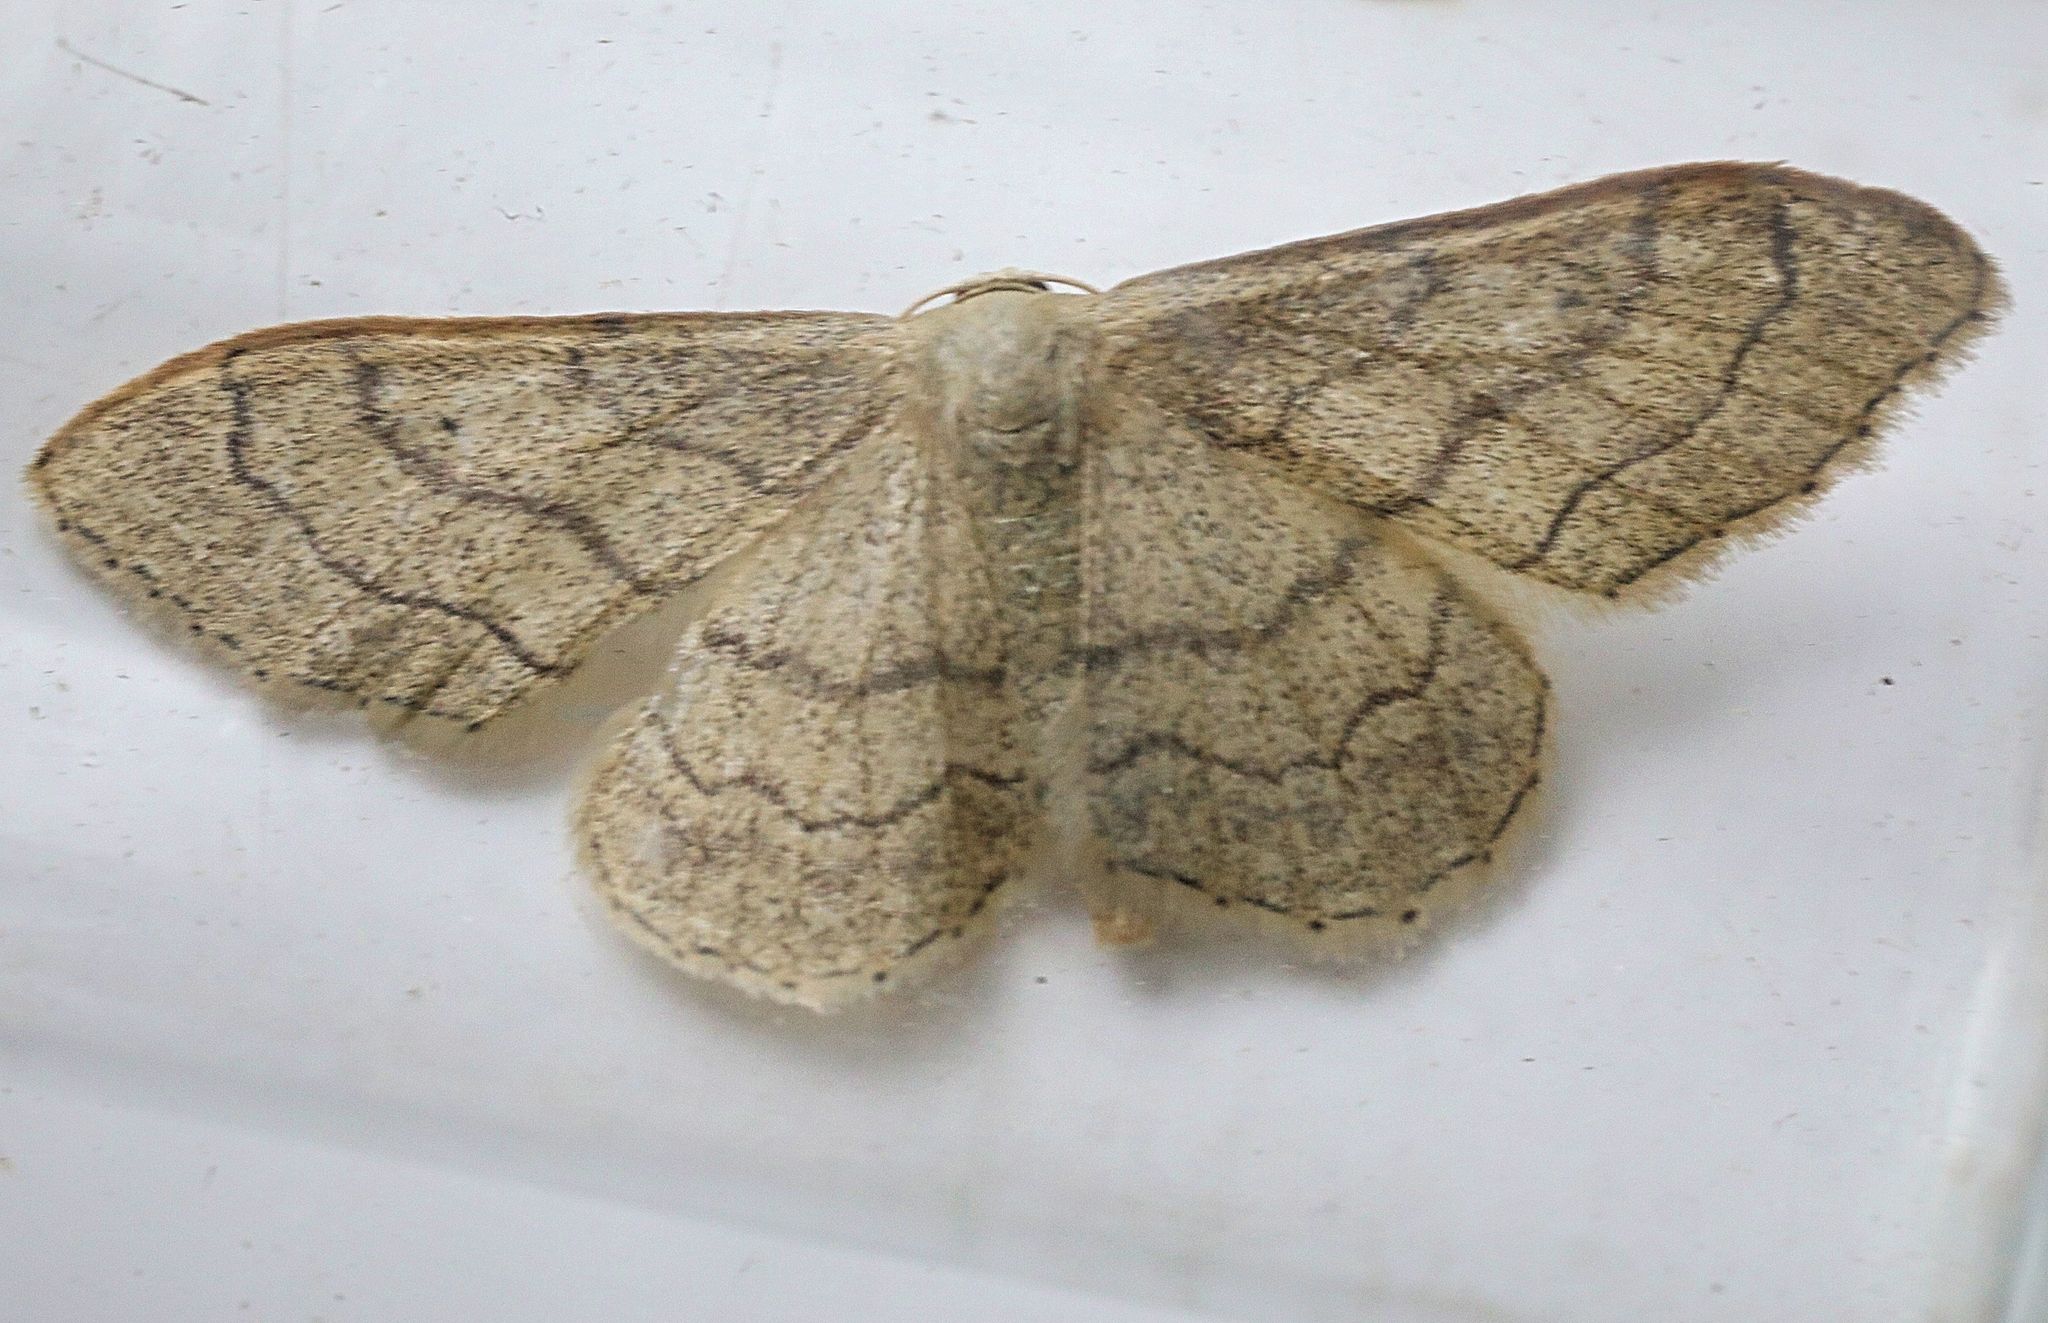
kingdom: Animalia
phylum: Arthropoda
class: Insecta
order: Lepidoptera
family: Geometridae
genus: Idaea
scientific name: Idaea aversata
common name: Riband wave
